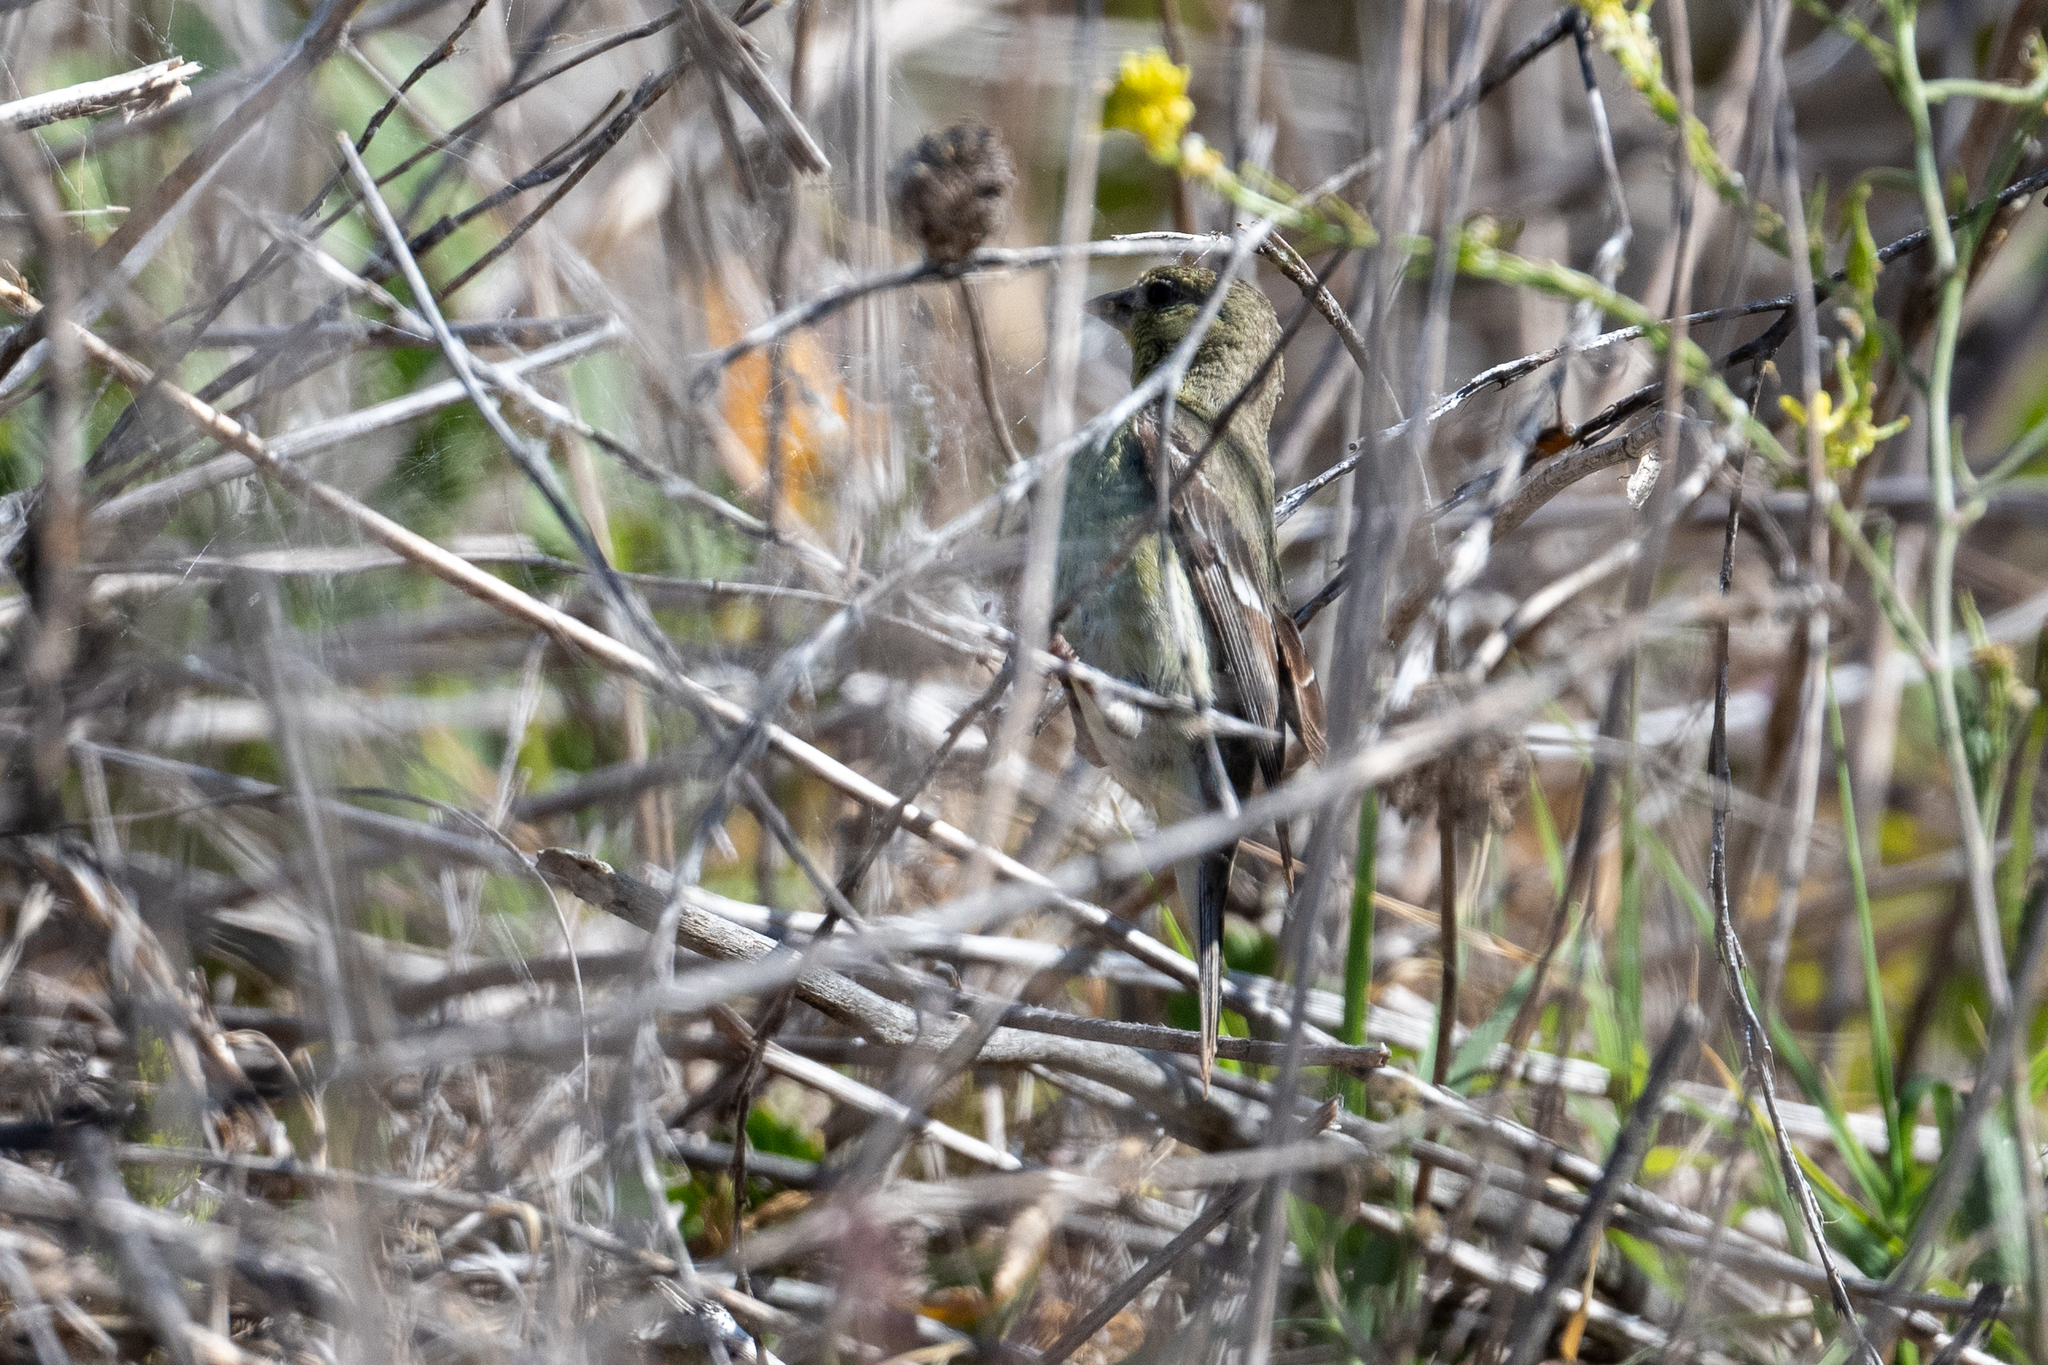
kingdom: Animalia
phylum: Chordata
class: Aves
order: Passeriformes
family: Fringillidae
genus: Spinus
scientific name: Spinus psaltria
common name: Lesser goldfinch
